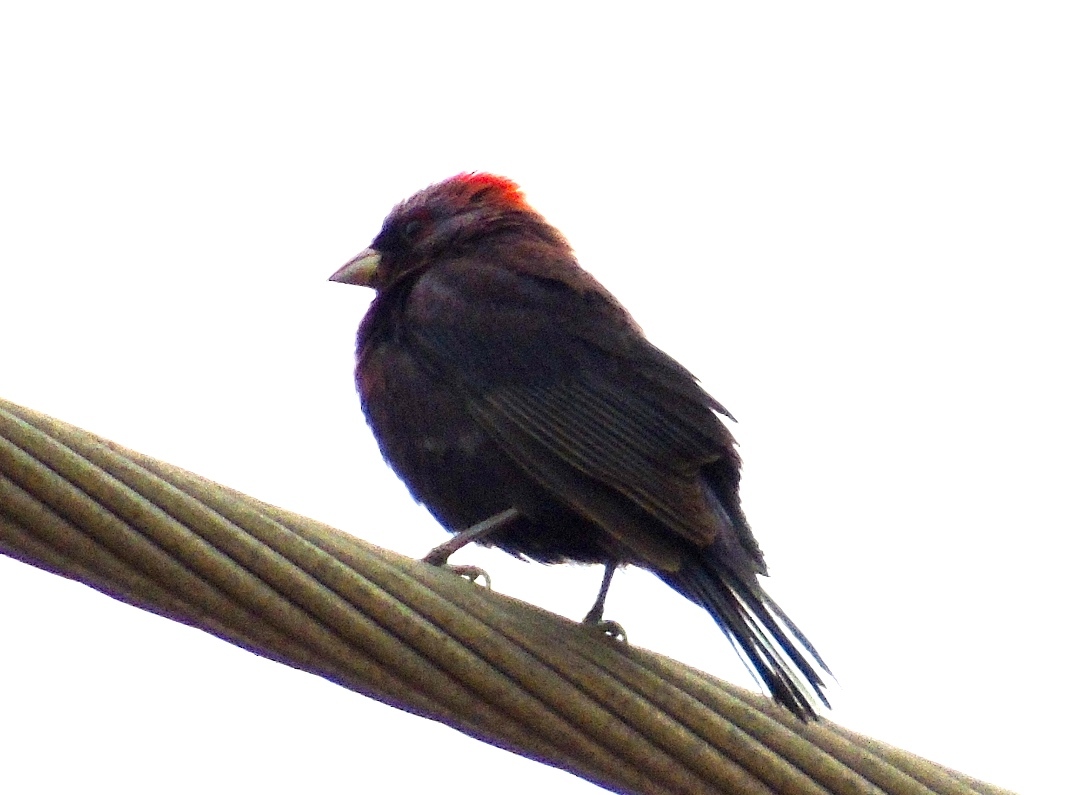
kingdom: Animalia
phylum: Chordata
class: Aves
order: Passeriformes
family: Cardinalidae
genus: Passerina
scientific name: Passerina versicolor
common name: Varied bunting
